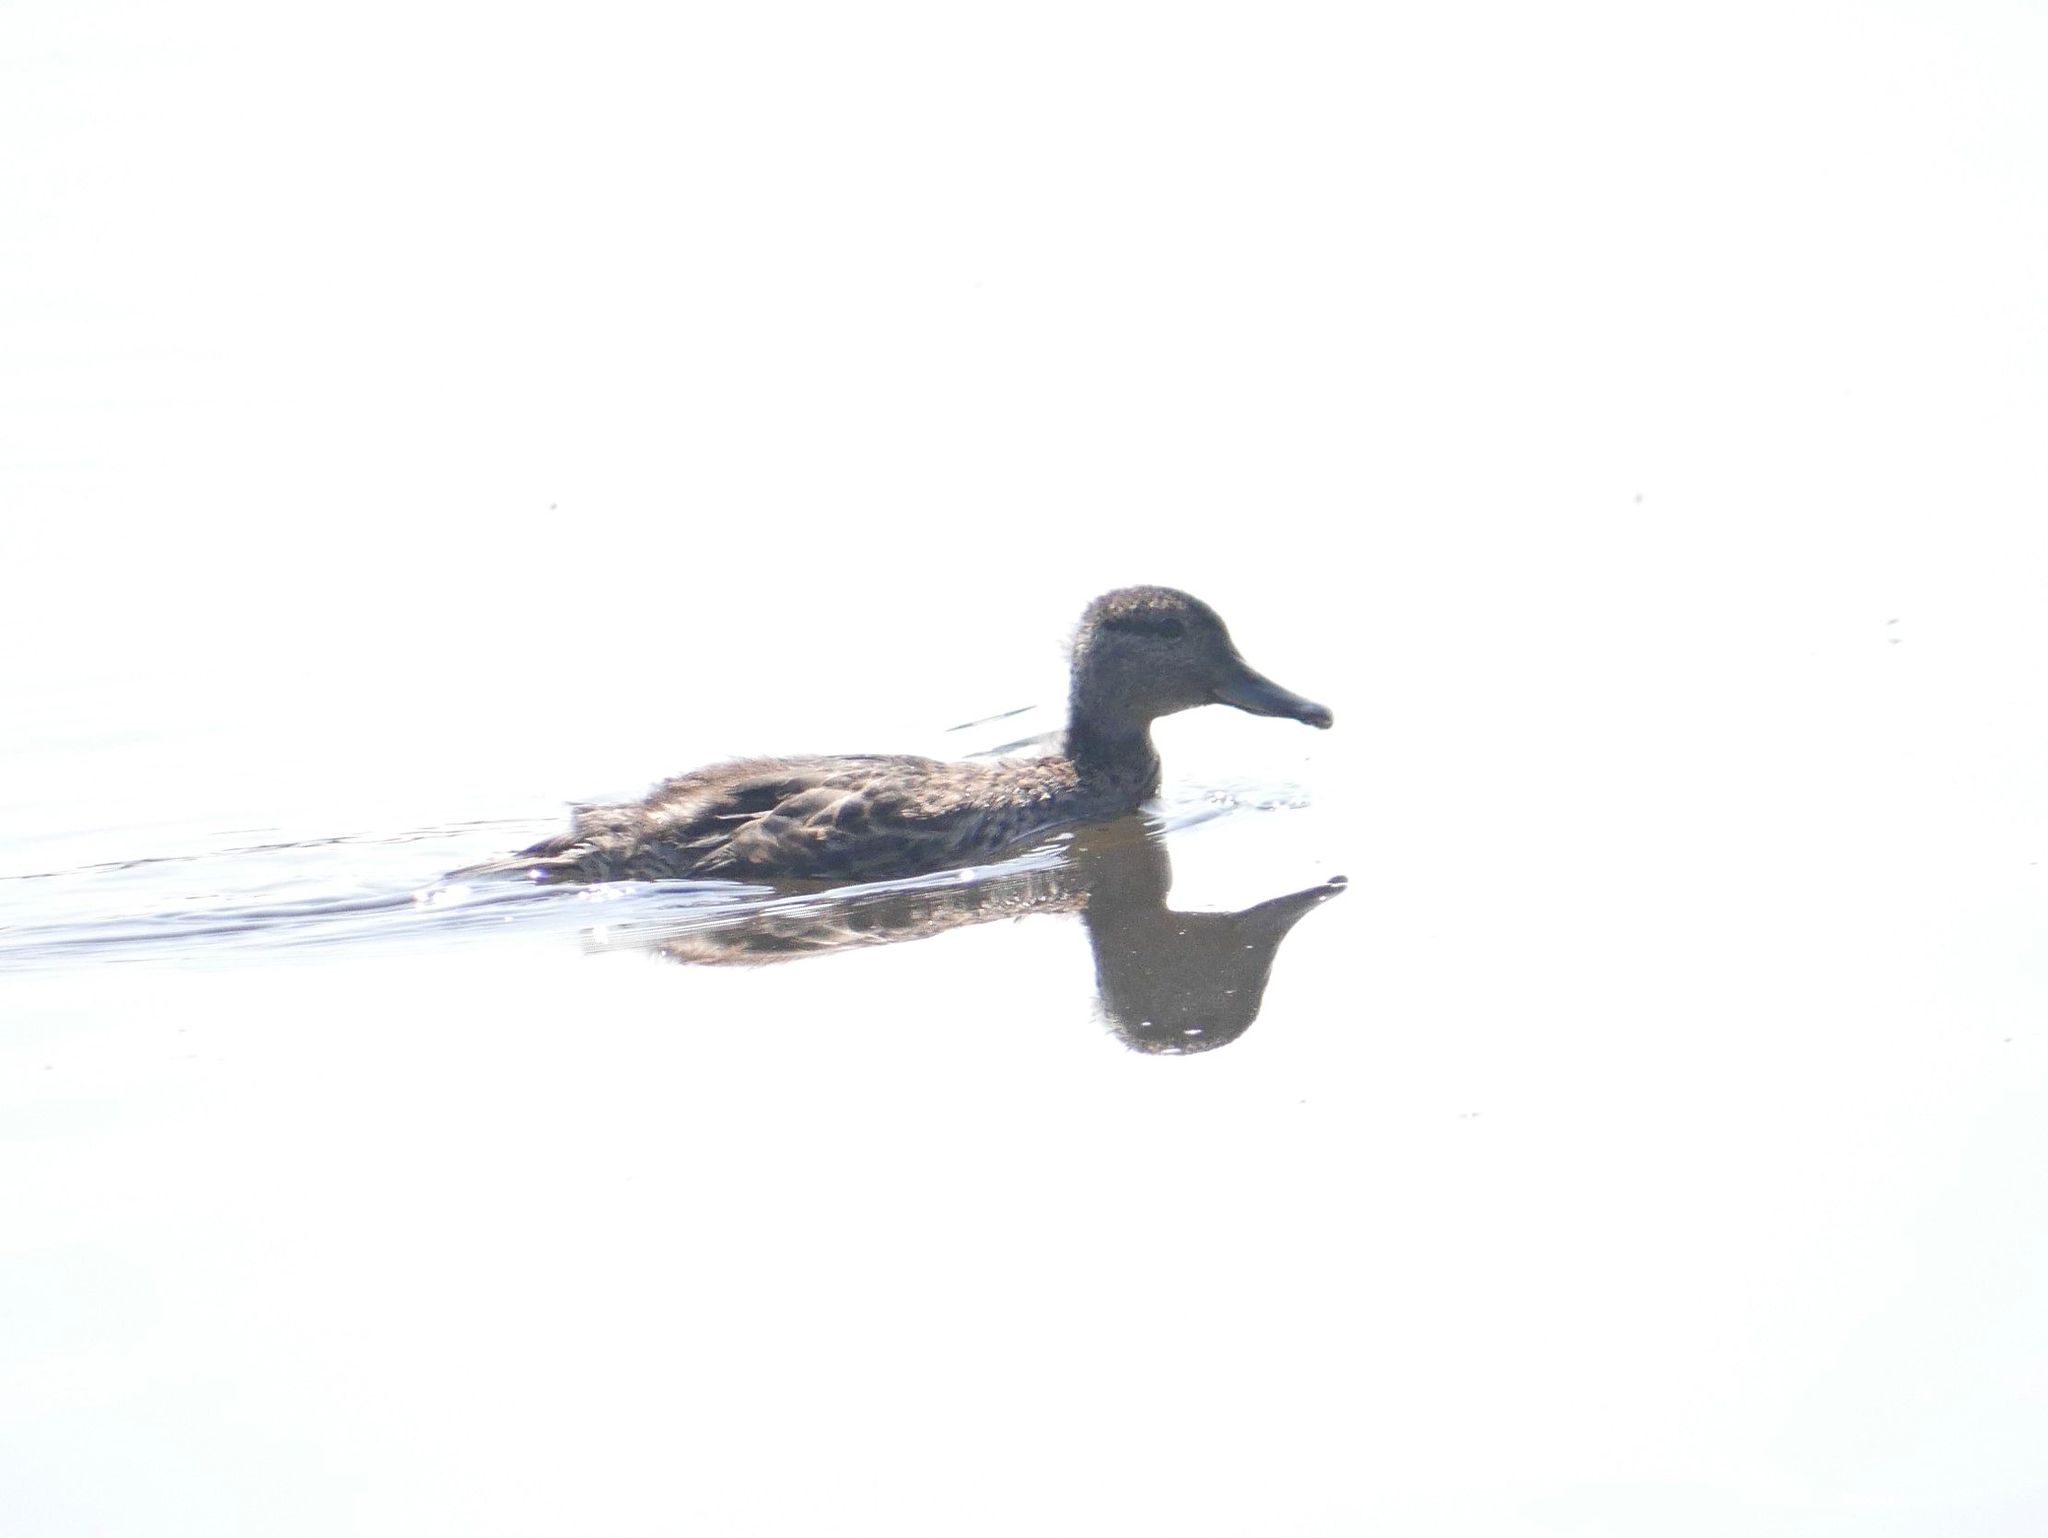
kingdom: Animalia
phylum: Chordata
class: Aves
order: Anseriformes
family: Anatidae
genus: Anas
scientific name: Anas rubripes
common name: American black duck
